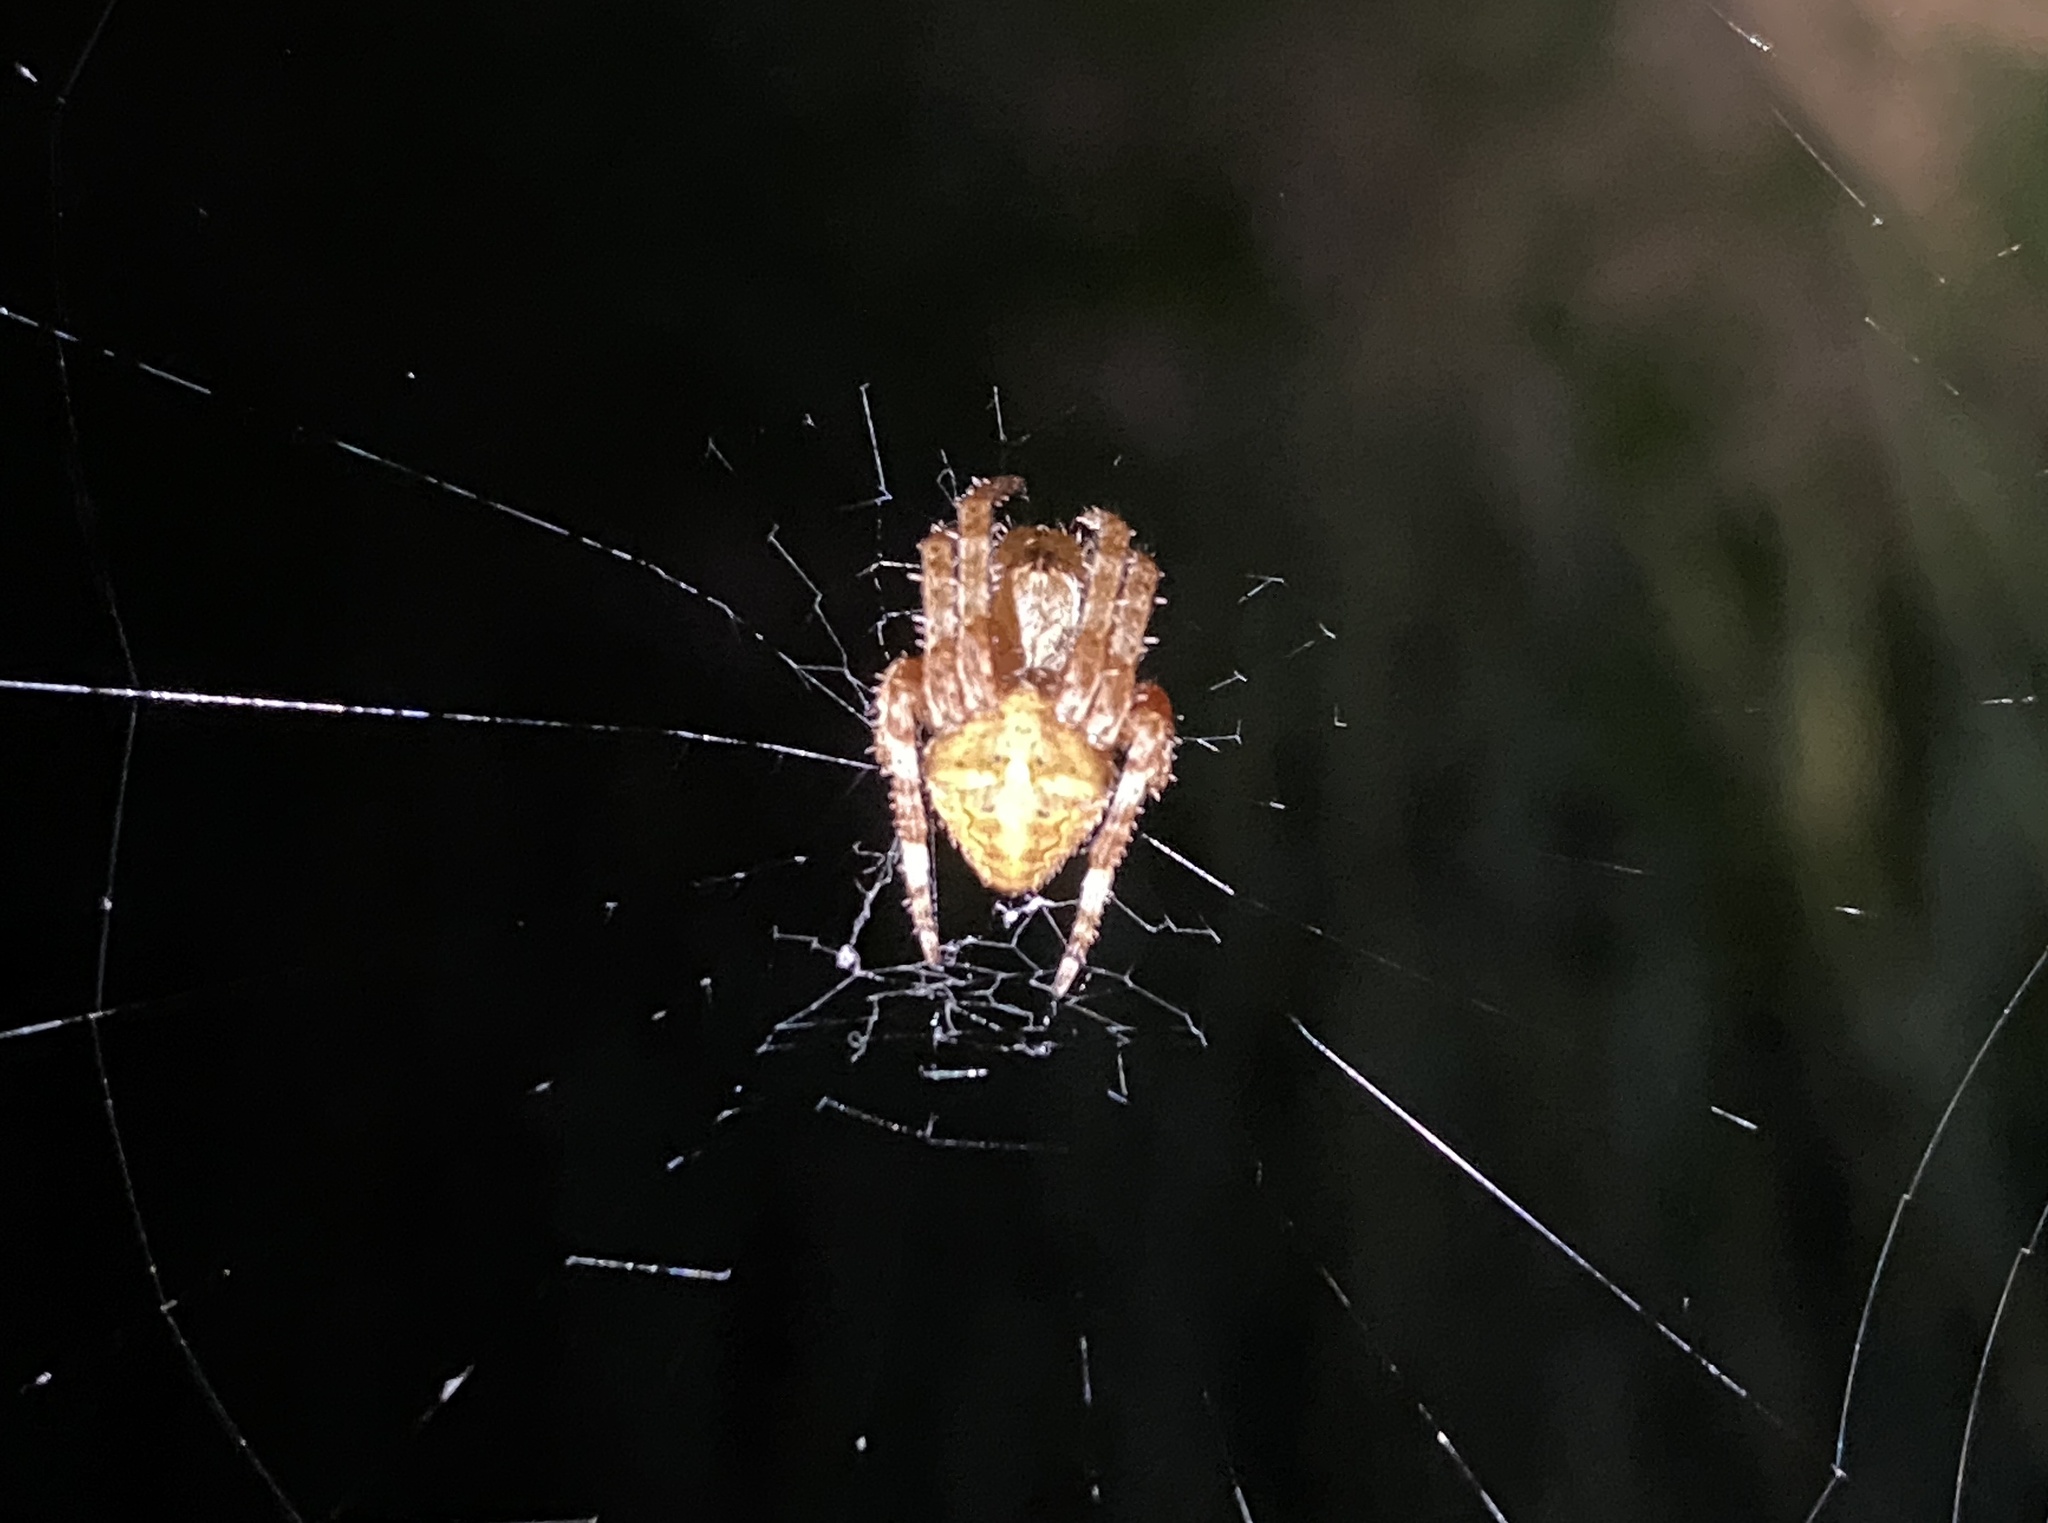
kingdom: Animalia
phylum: Arthropoda
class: Arachnida
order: Araneae
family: Araneidae
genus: Araneus
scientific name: Araneus angulatus
